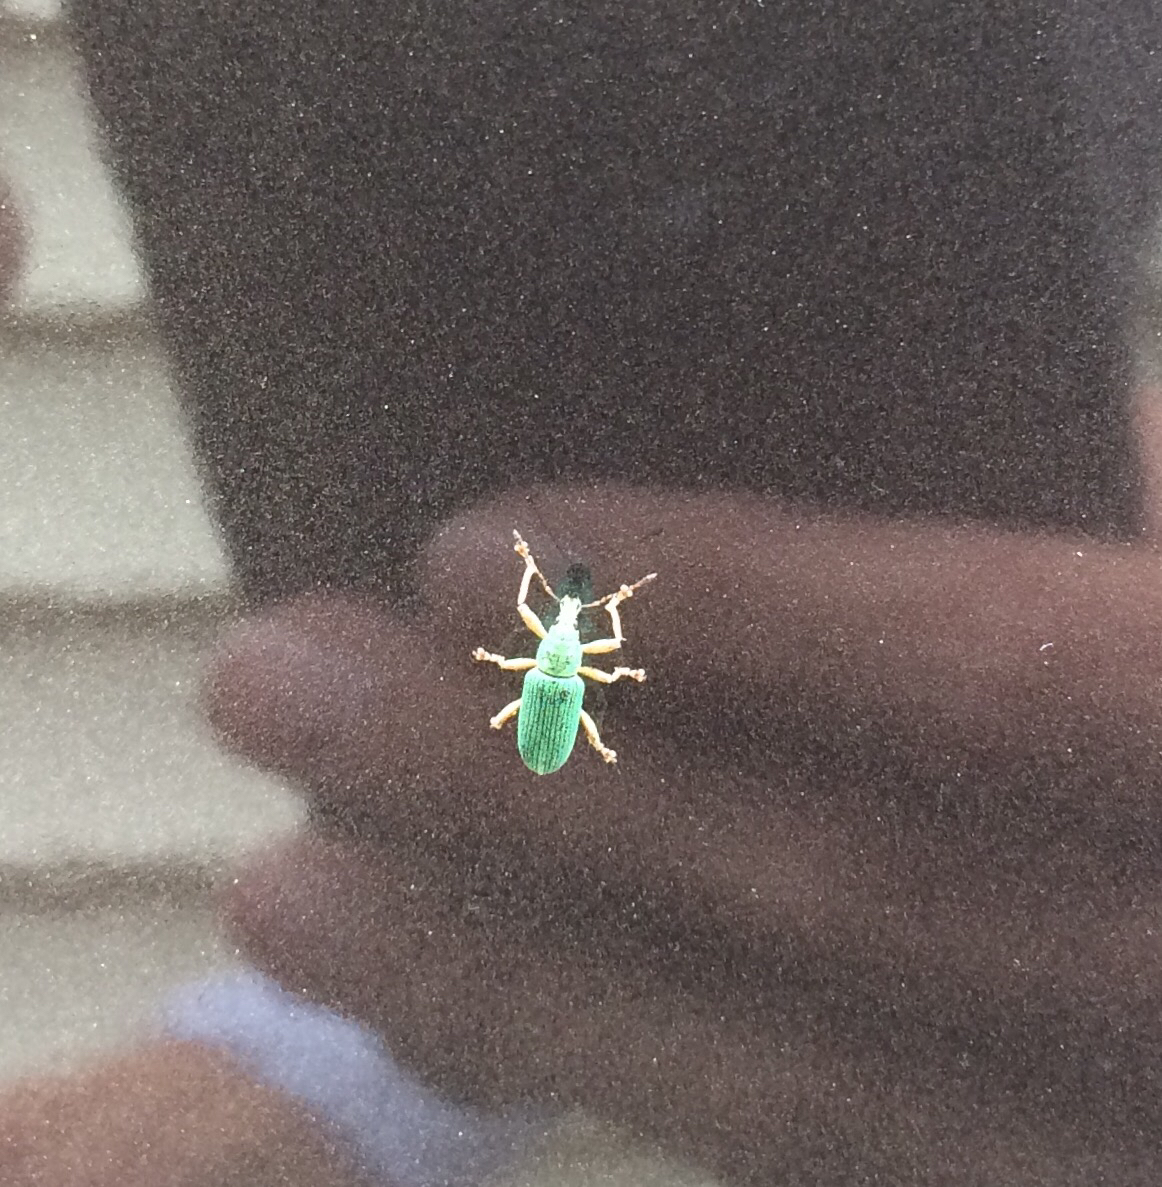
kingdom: Animalia
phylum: Arthropoda
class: Insecta
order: Coleoptera
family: Curculionidae
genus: Polydrusus
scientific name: Polydrusus formosus
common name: Weevil
